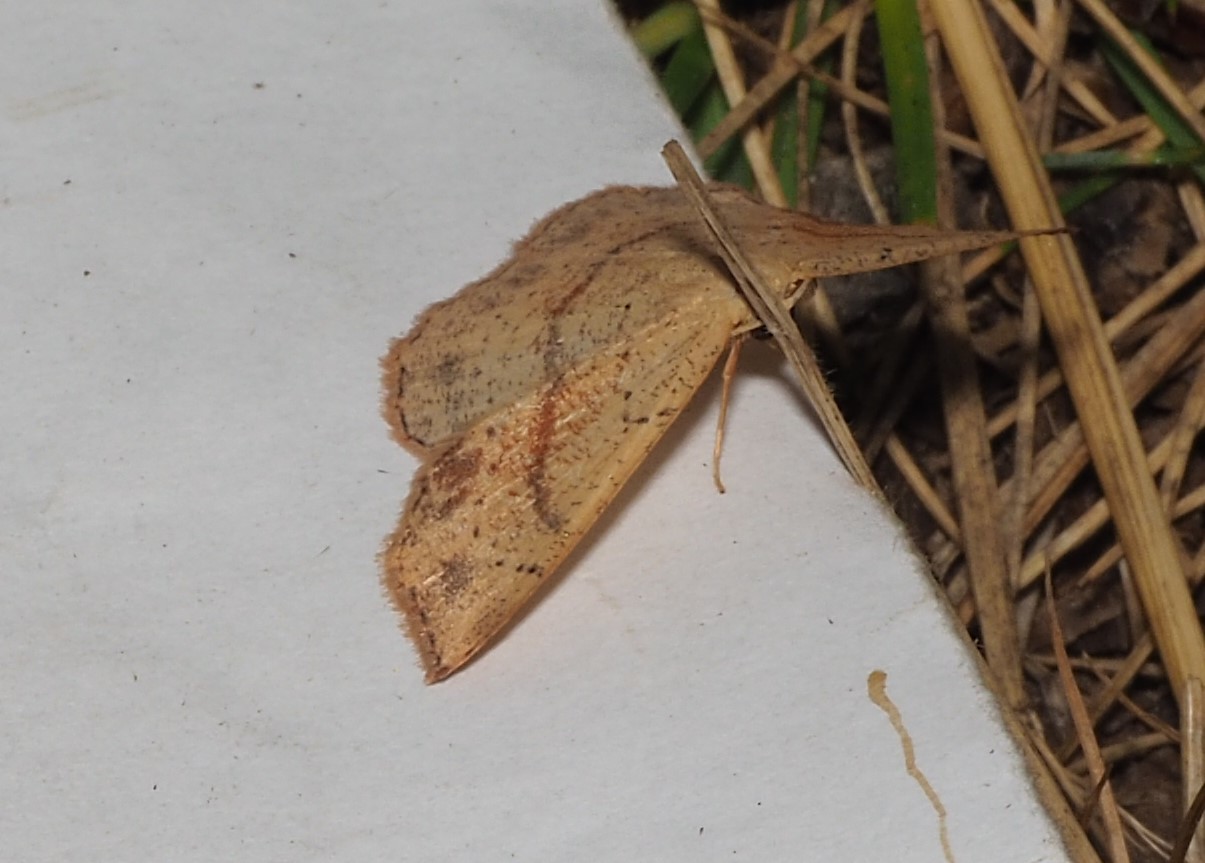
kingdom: Animalia
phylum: Arthropoda
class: Insecta
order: Lepidoptera
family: Geometridae
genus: Cyclophora
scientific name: Cyclophora punctaria
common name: Maiden's blush
